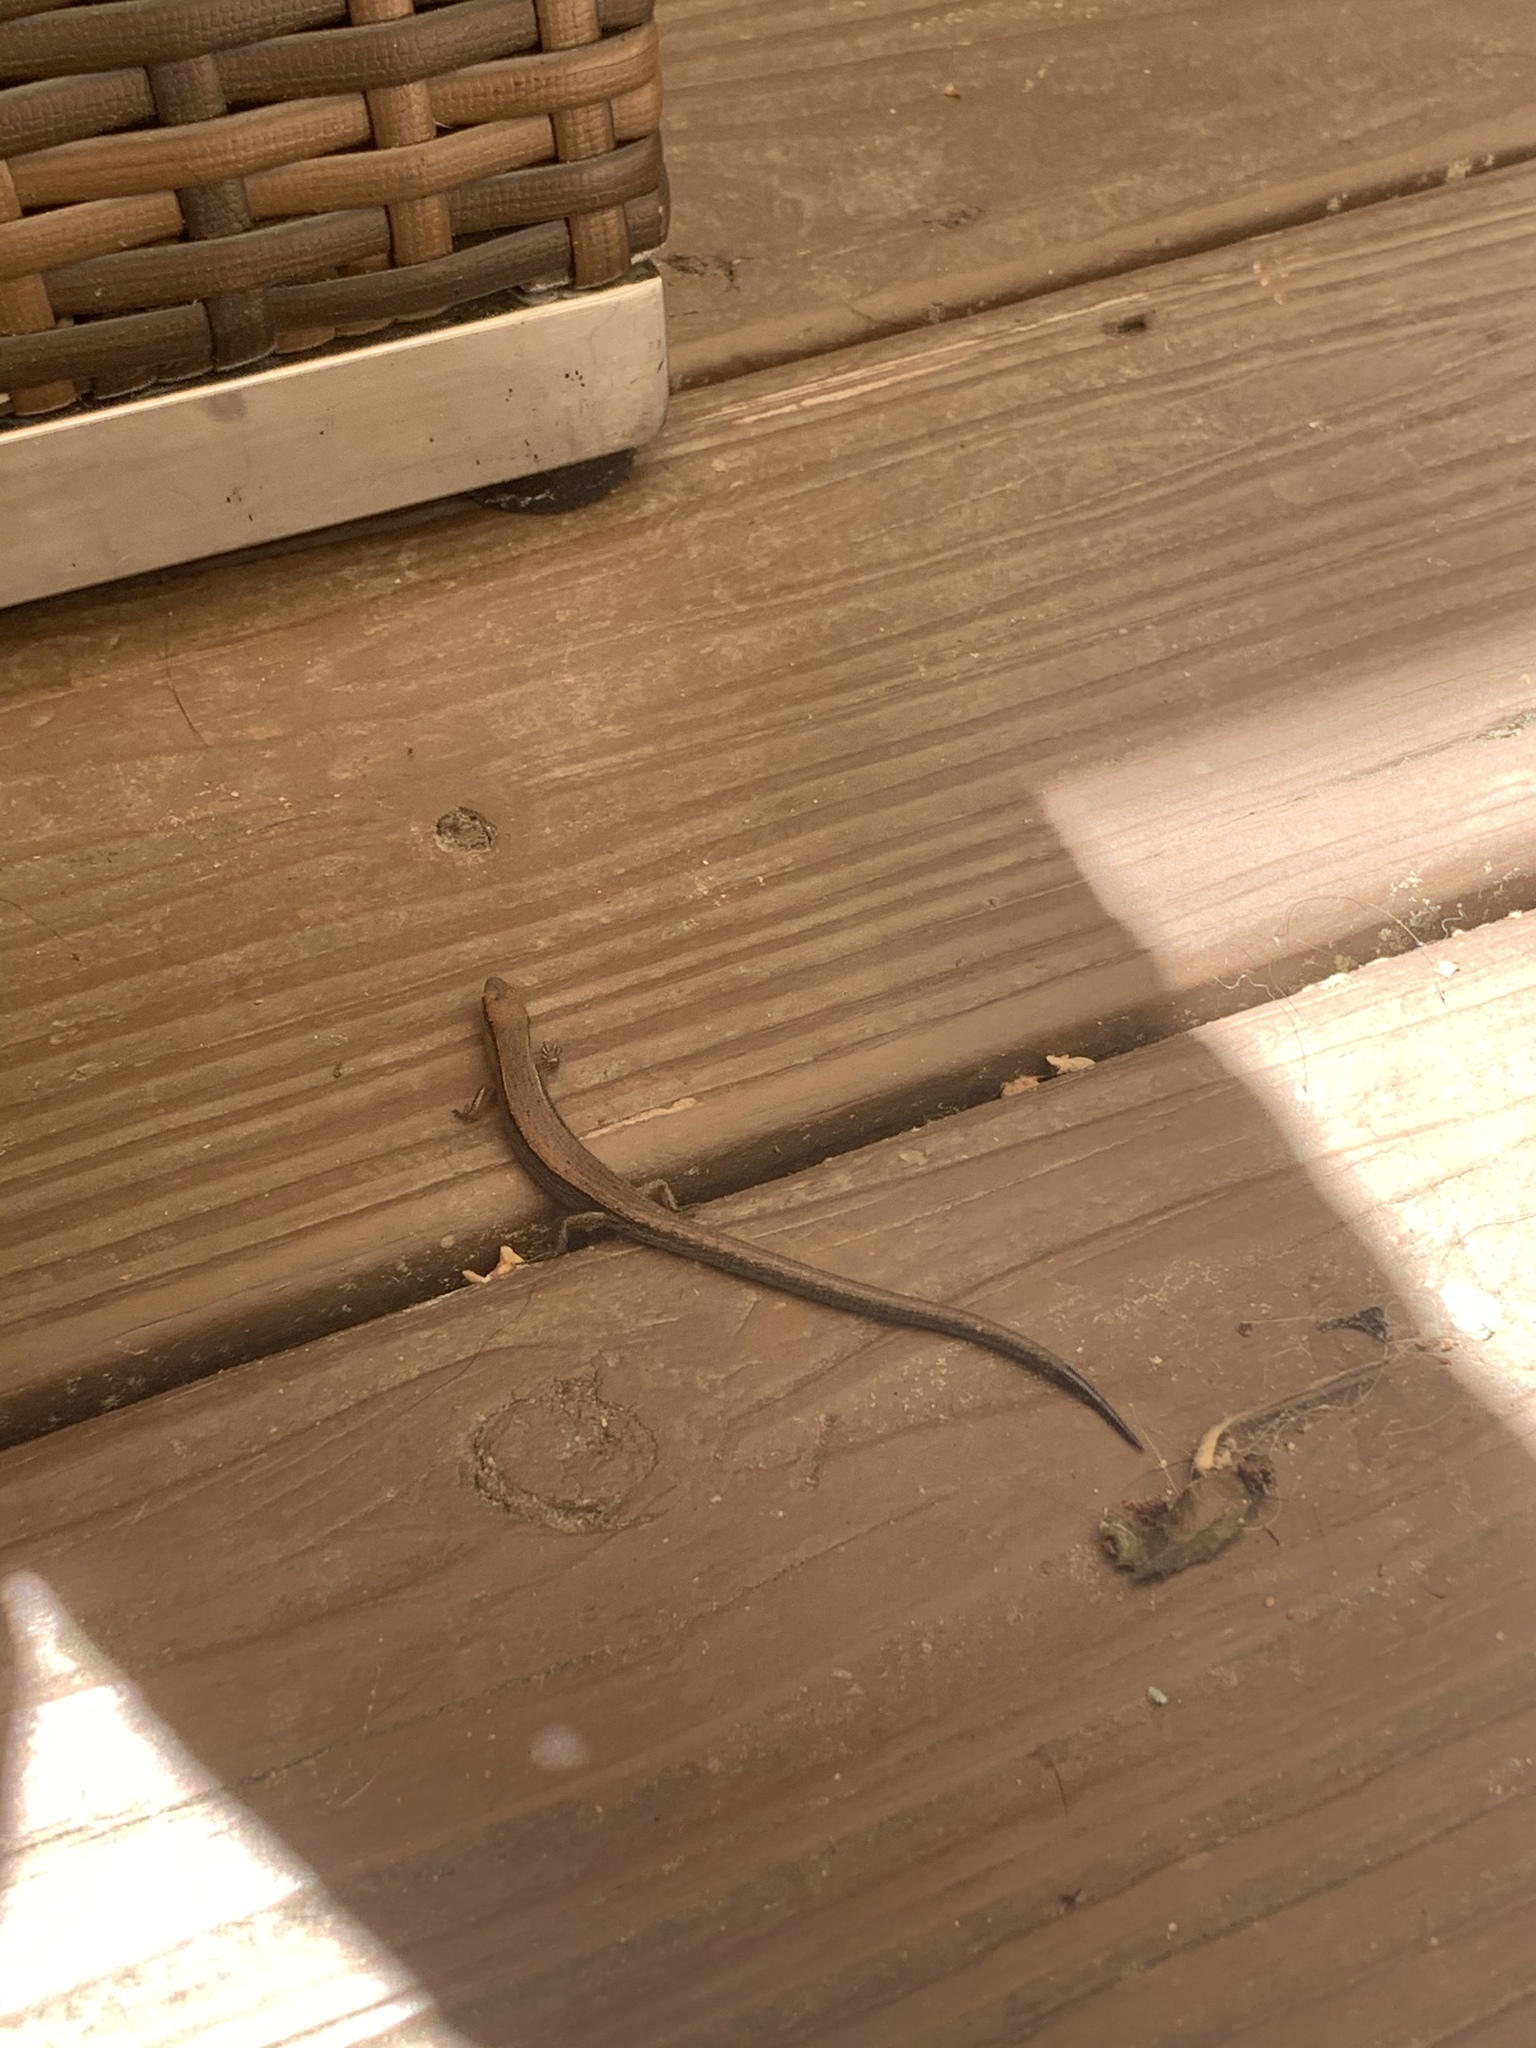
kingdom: Animalia
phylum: Chordata
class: Squamata
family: Scincidae
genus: Scincella
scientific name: Scincella lateralis
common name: Ground skink
